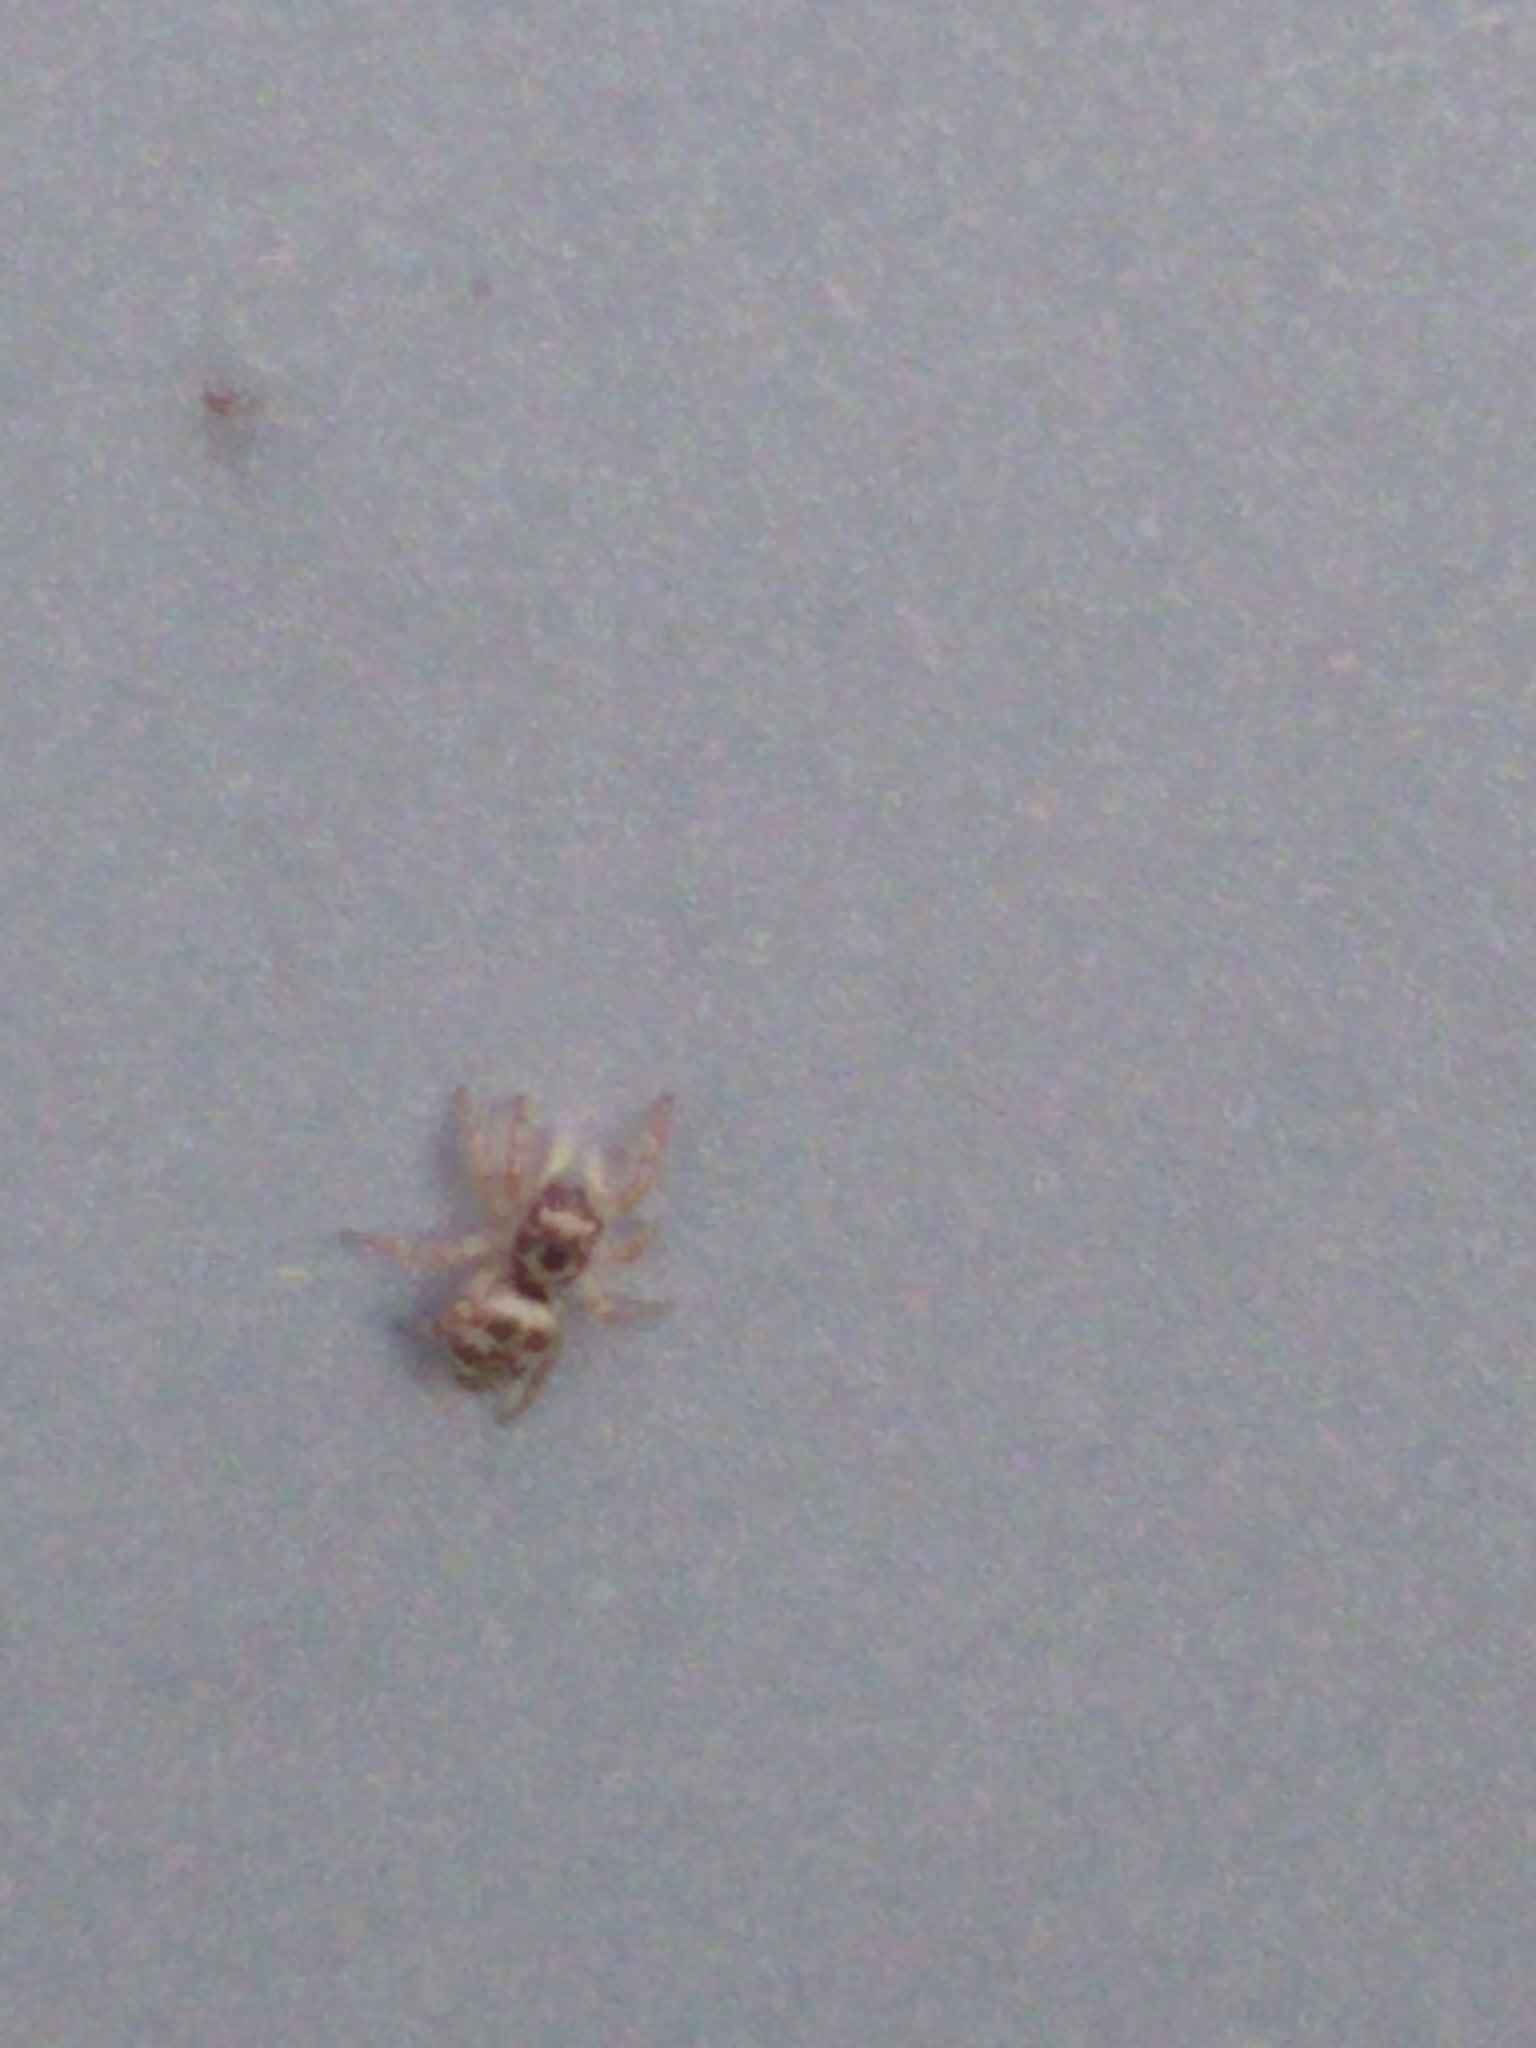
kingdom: Animalia
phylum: Arthropoda
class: Arachnida
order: Araneae
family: Salticidae
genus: Salticus
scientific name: Salticus scenicus
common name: Zebra jumper
